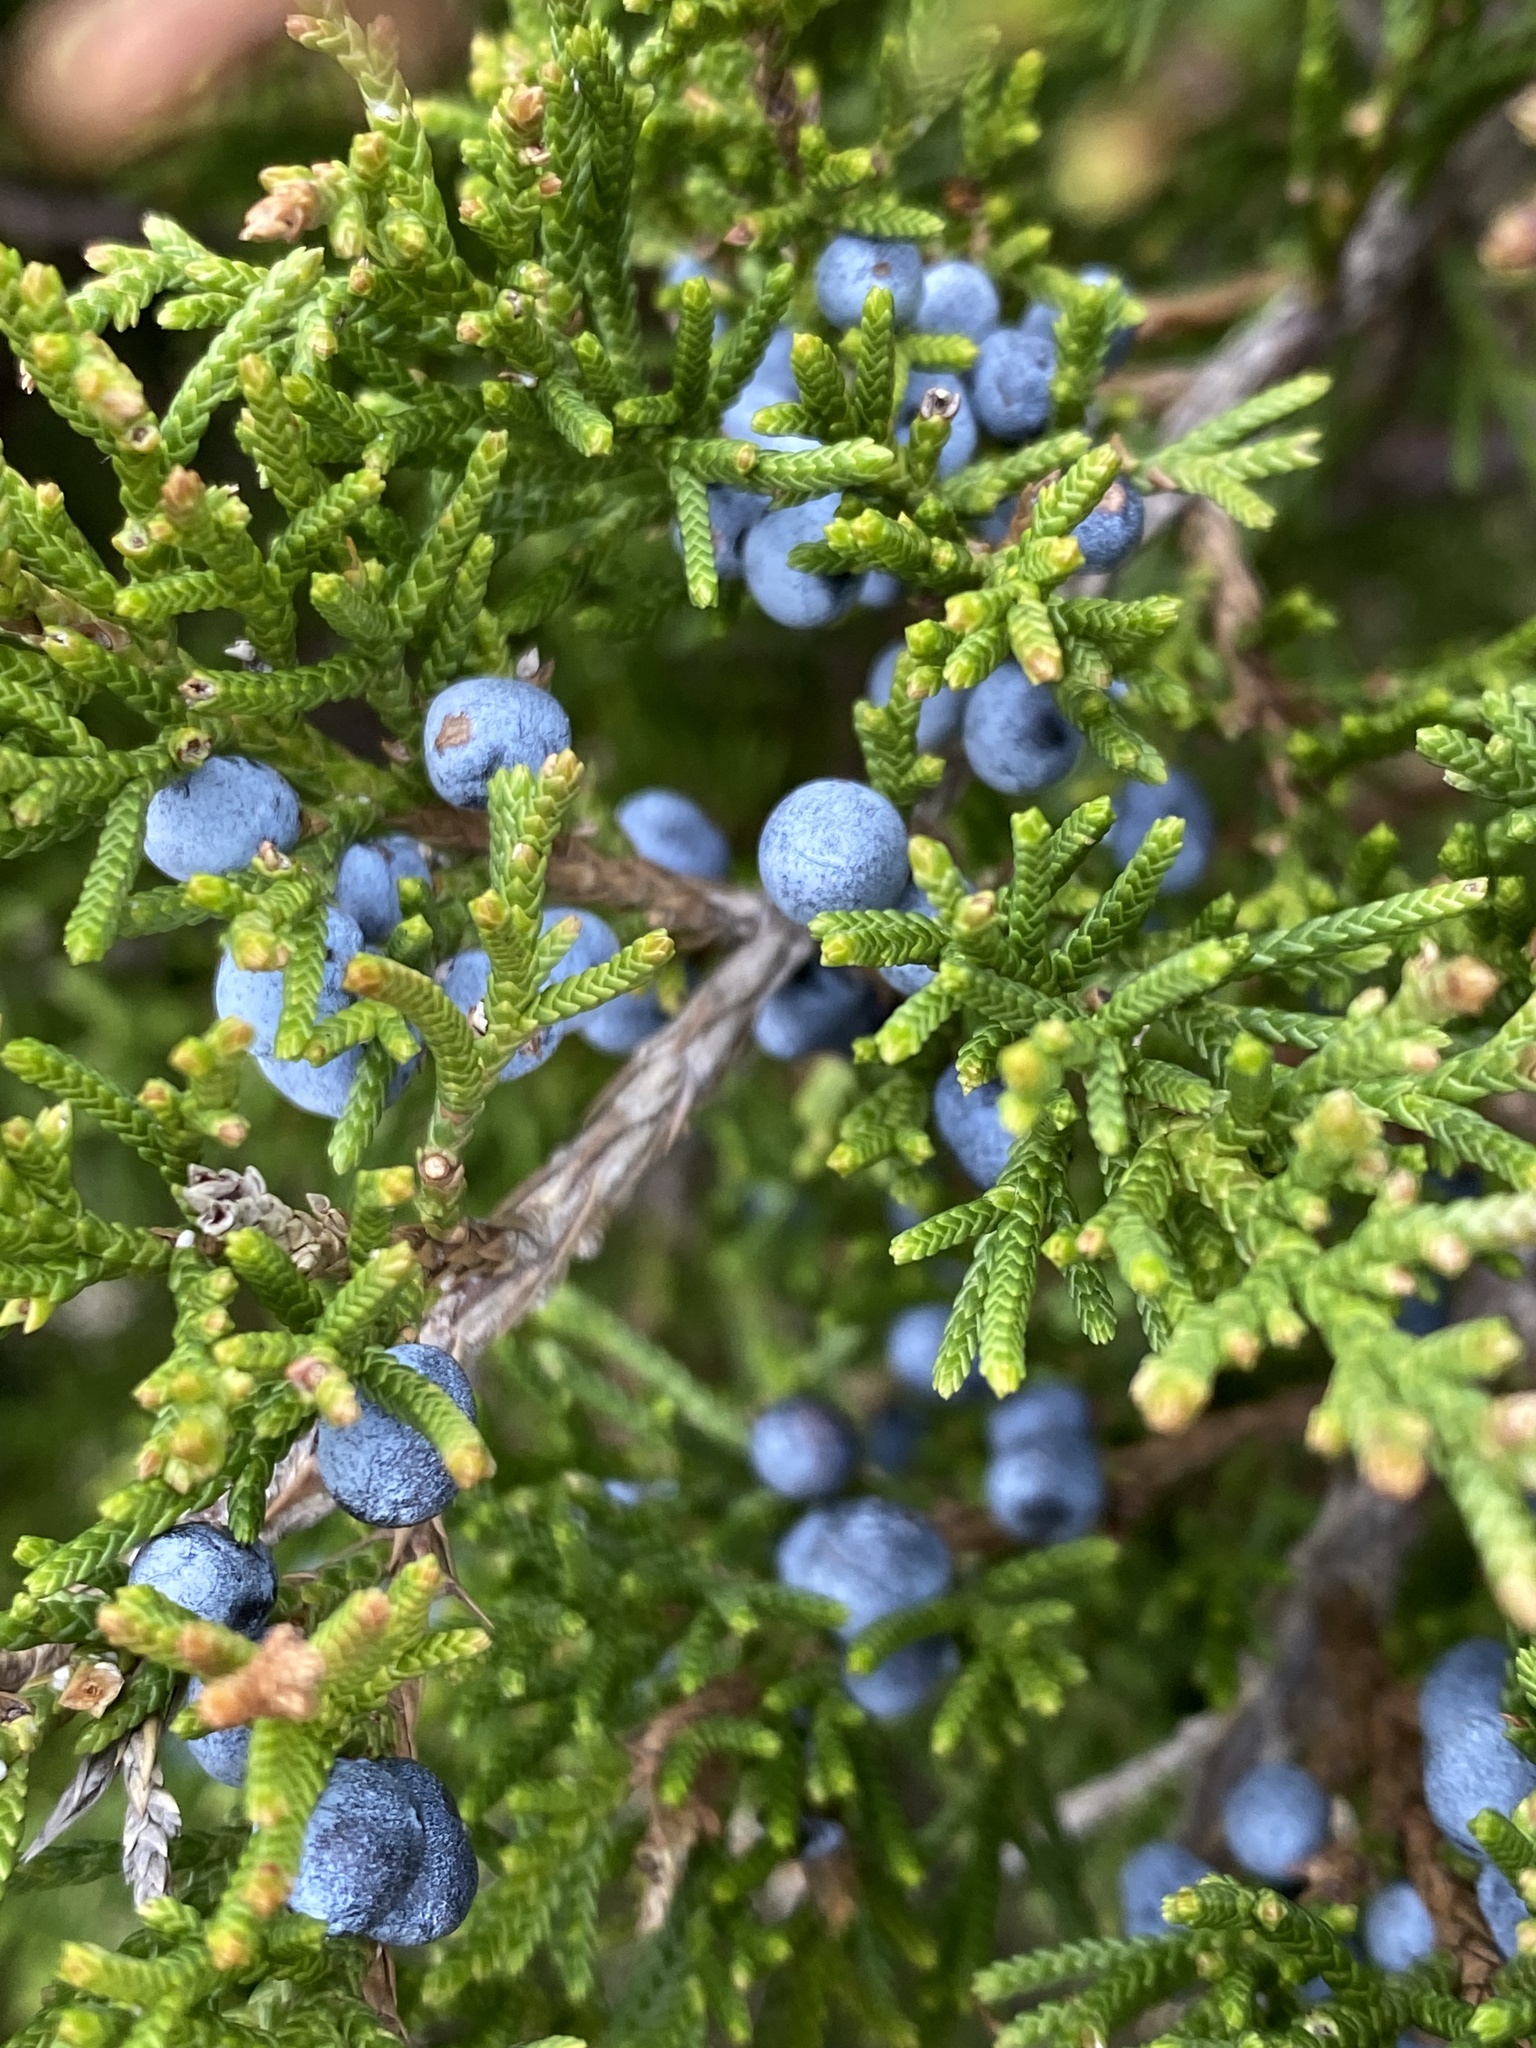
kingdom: Plantae
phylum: Tracheophyta
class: Pinopsida
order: Pinales
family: Cupressaceae
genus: Juniperus
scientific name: Juniperus virginiana
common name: Red juniper
